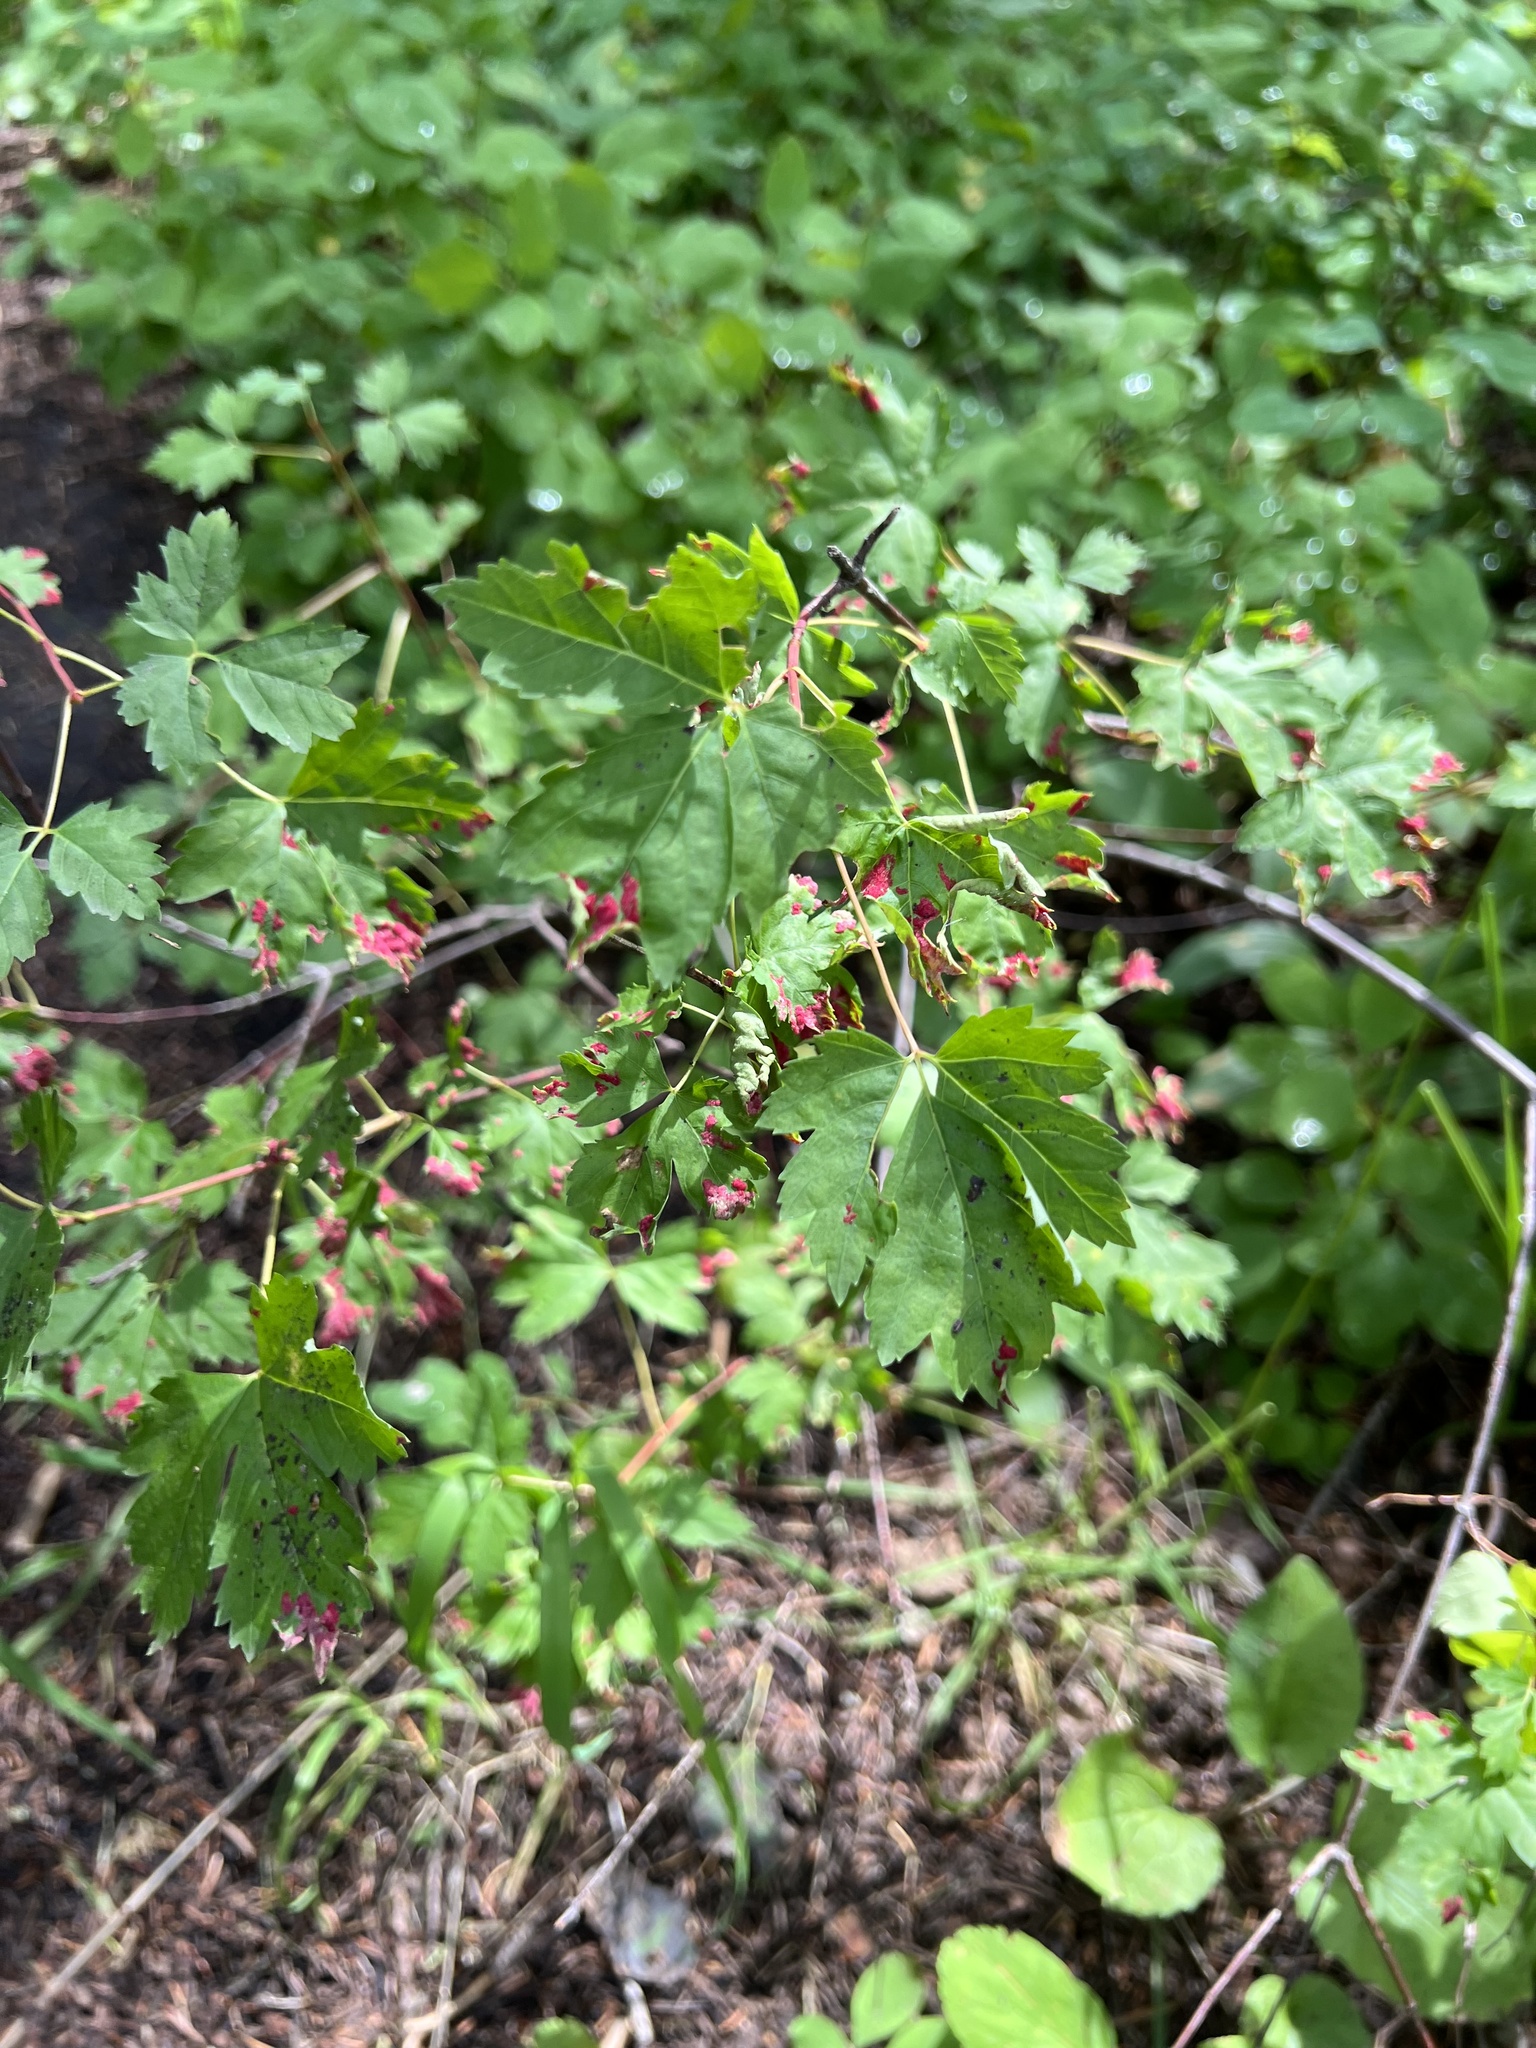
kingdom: Animalia
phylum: Arthropoda
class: Arachnida
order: Trombidiformes
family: Eriophyidae
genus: Aceria
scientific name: Aceria
